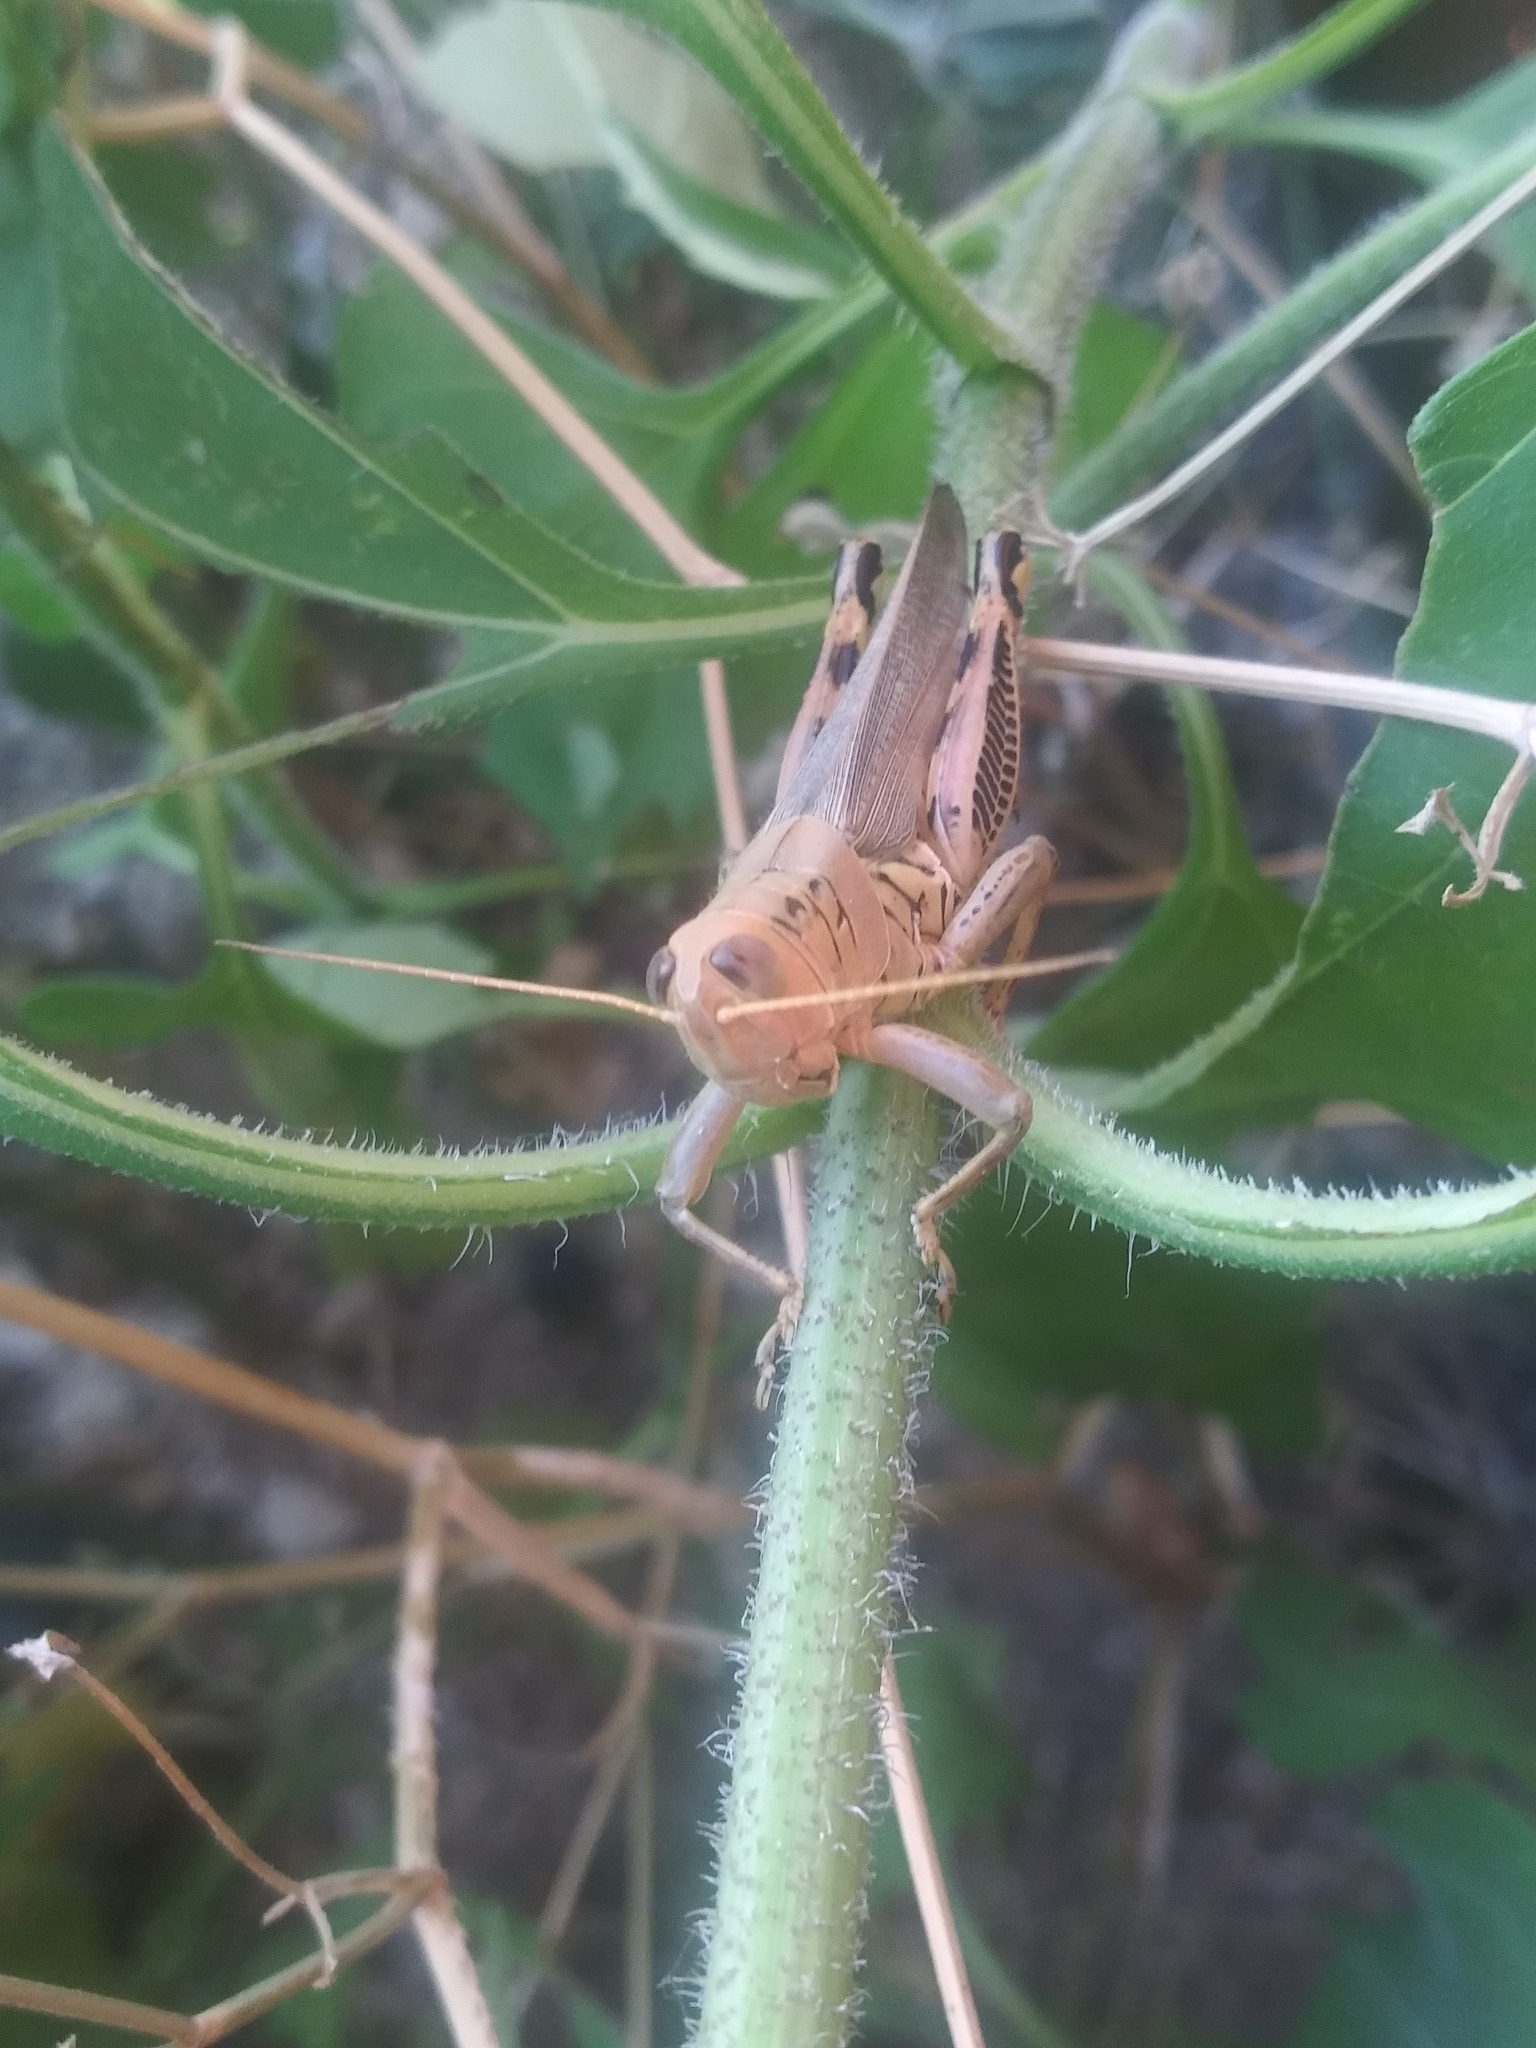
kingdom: Animalia
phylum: Arthropoda
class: Insecta
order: Orthoptera
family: Acrididae
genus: Melanoplus
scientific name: Melanoplus differentialis
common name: Differential grasshopper
